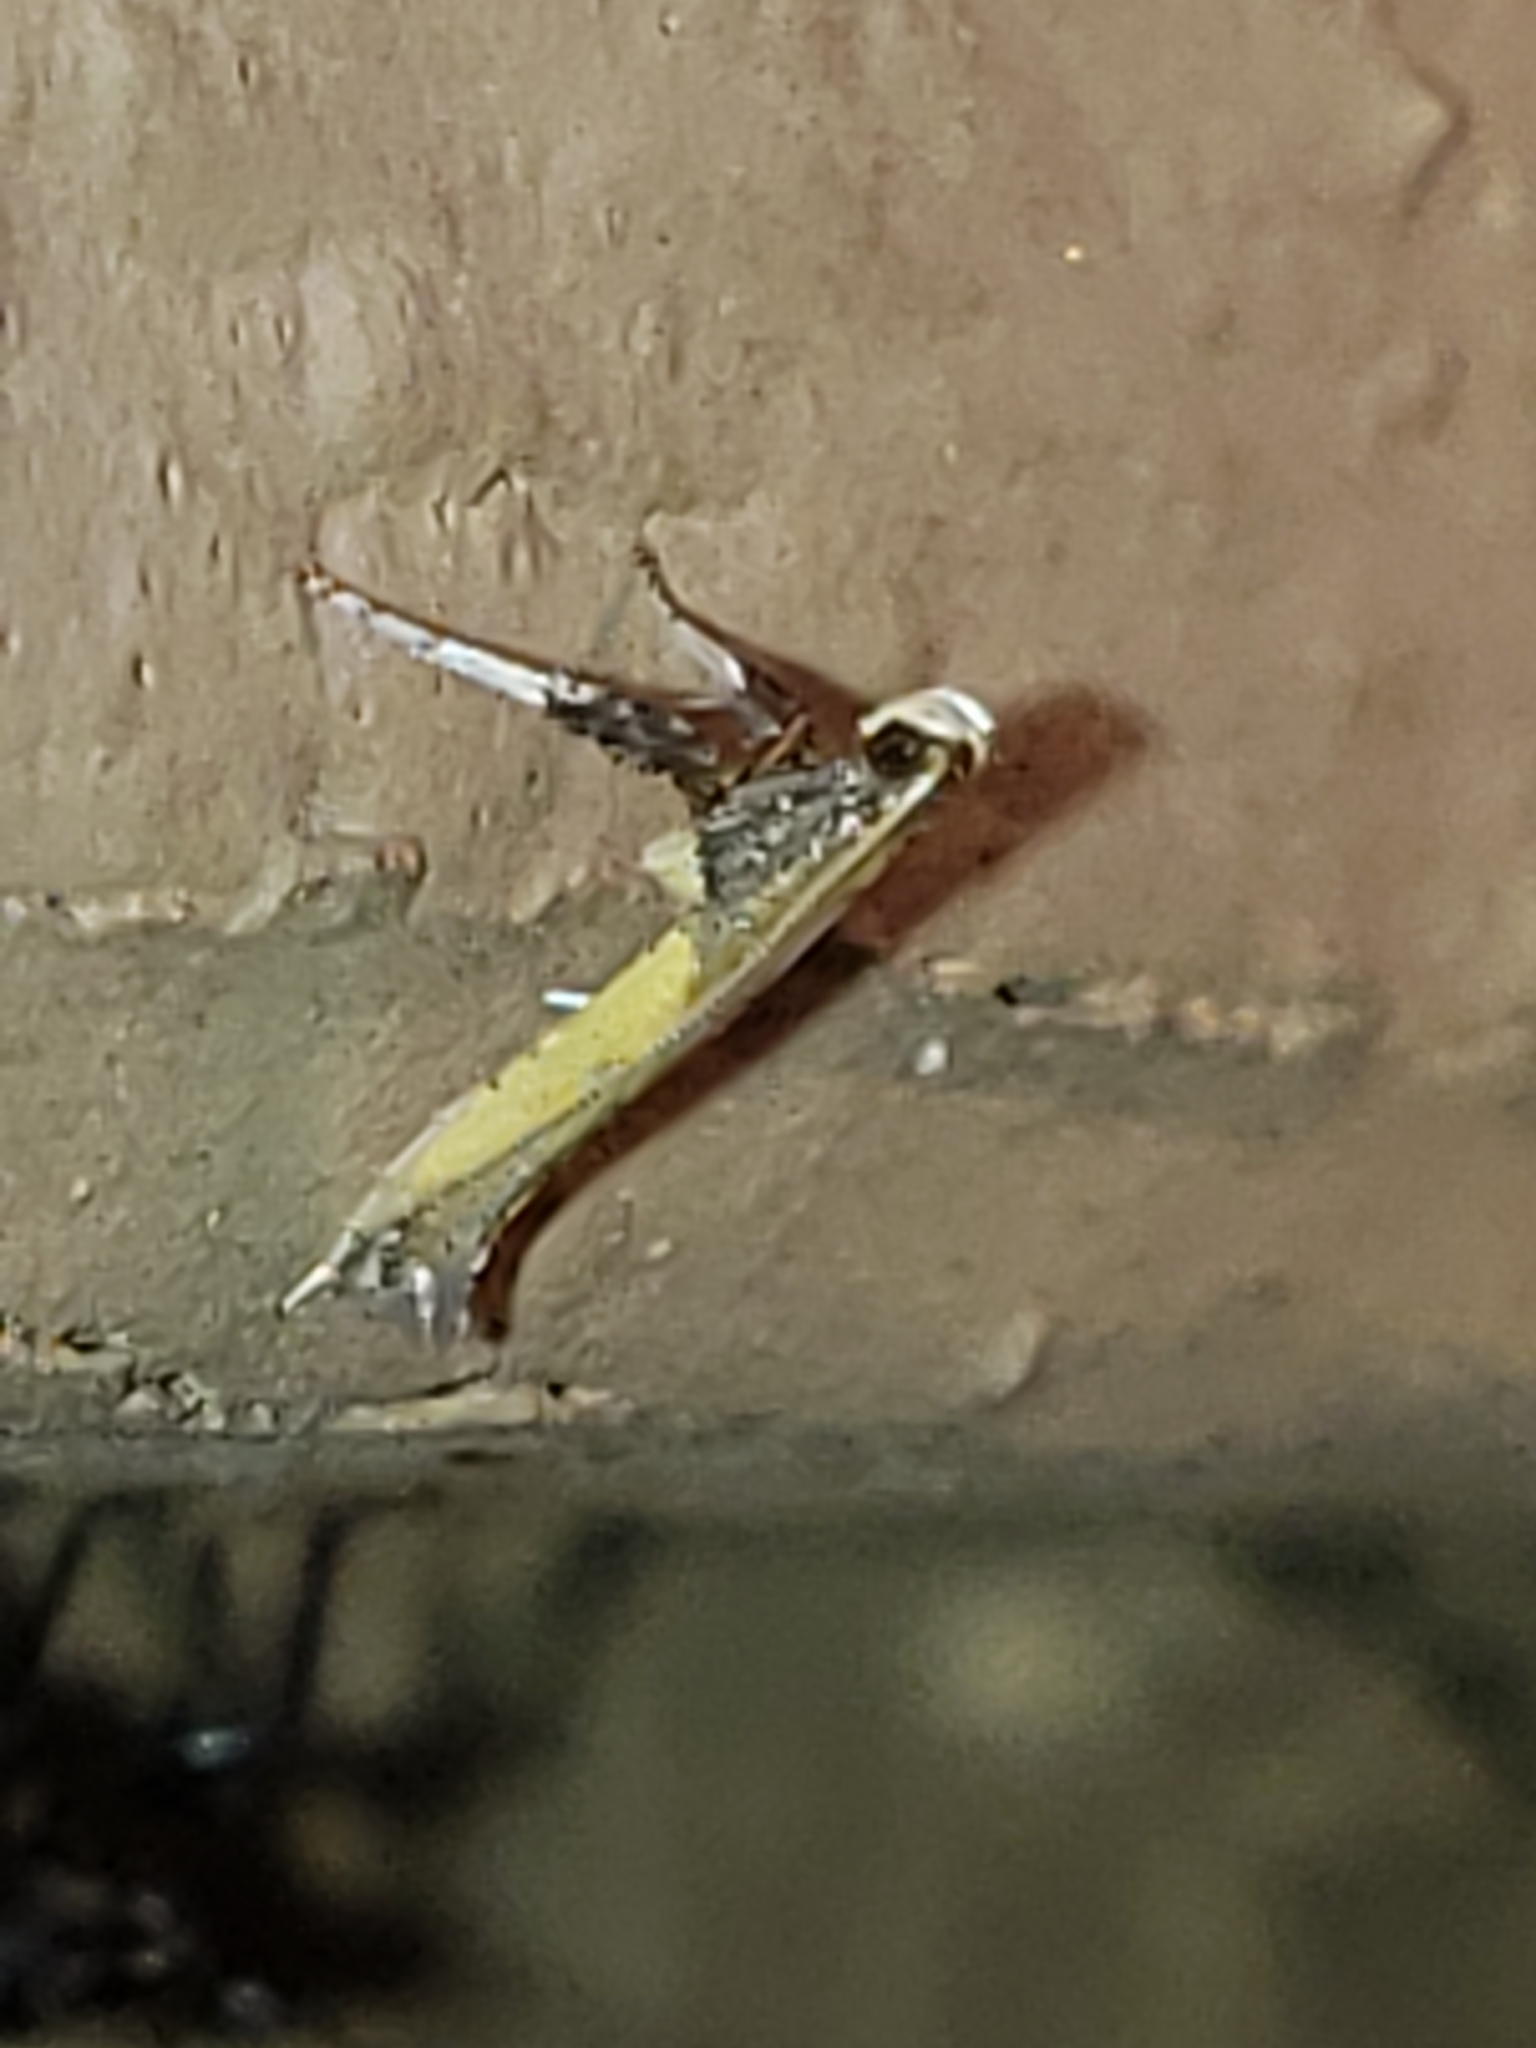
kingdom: Animalia
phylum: Arthropoda
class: Insecta
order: Lepidoptera
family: Gracillariidae
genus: Caloptilia
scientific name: Caloptilia azaleella
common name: Azalea leafminer
